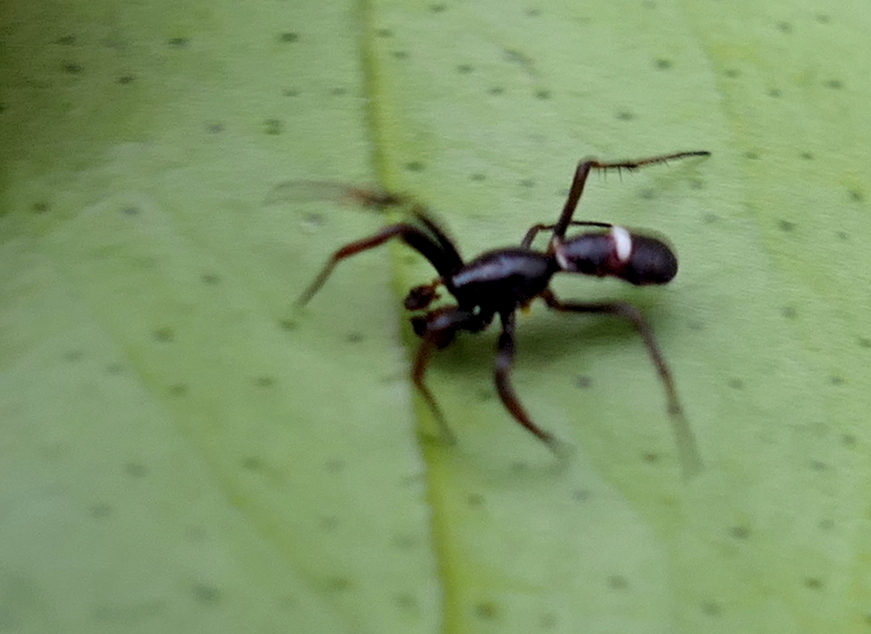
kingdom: Animalia
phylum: Arthropoda
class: Arachnida
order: Araneae
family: Araneidae
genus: Micrathena
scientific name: Micrathena flaveola
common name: Orb weavers
